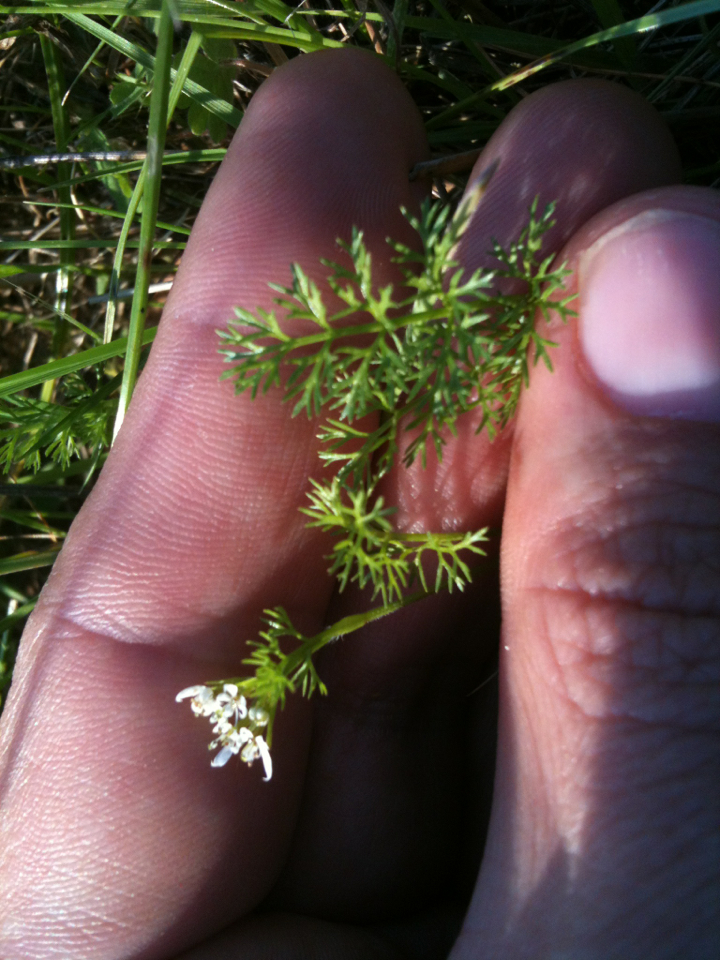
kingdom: Plantae
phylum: Tracheophyta
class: Magnoliopsida
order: Apiales
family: Apiaceae
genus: Scandix
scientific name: Scandix pecten-veneris
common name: Shepherd's-needle
